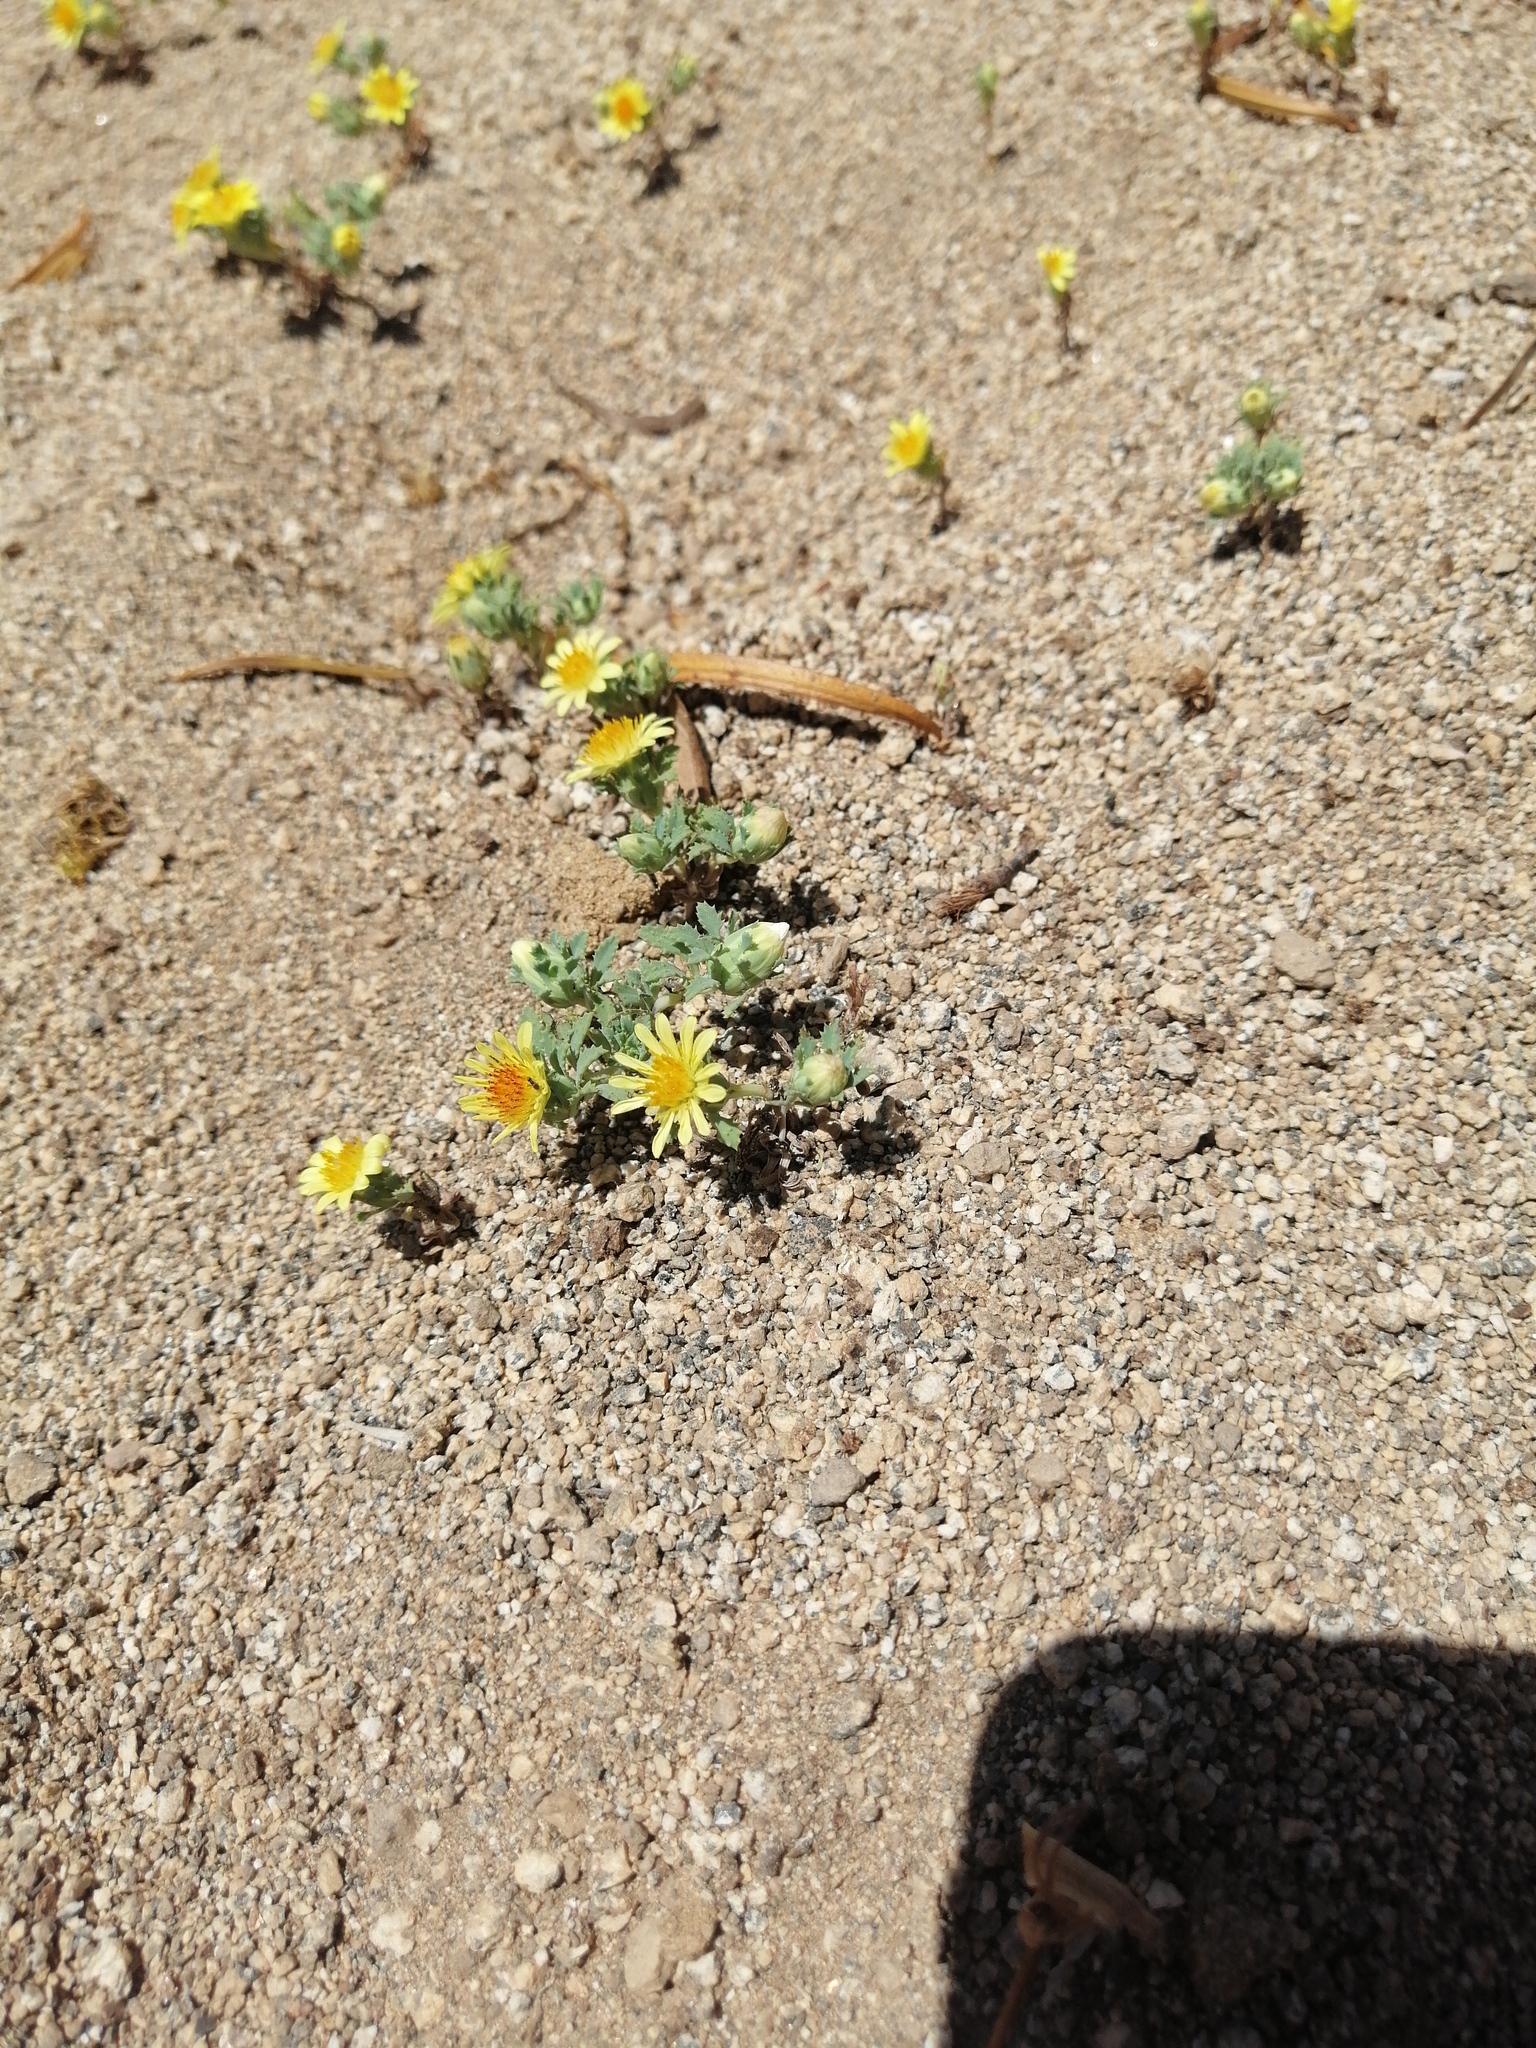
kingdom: Plantae
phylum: Tracheophyta
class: Magnoliopsida
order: Asterales
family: Asteraceae
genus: Chaetanthera
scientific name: Chaetanthera flabellata
